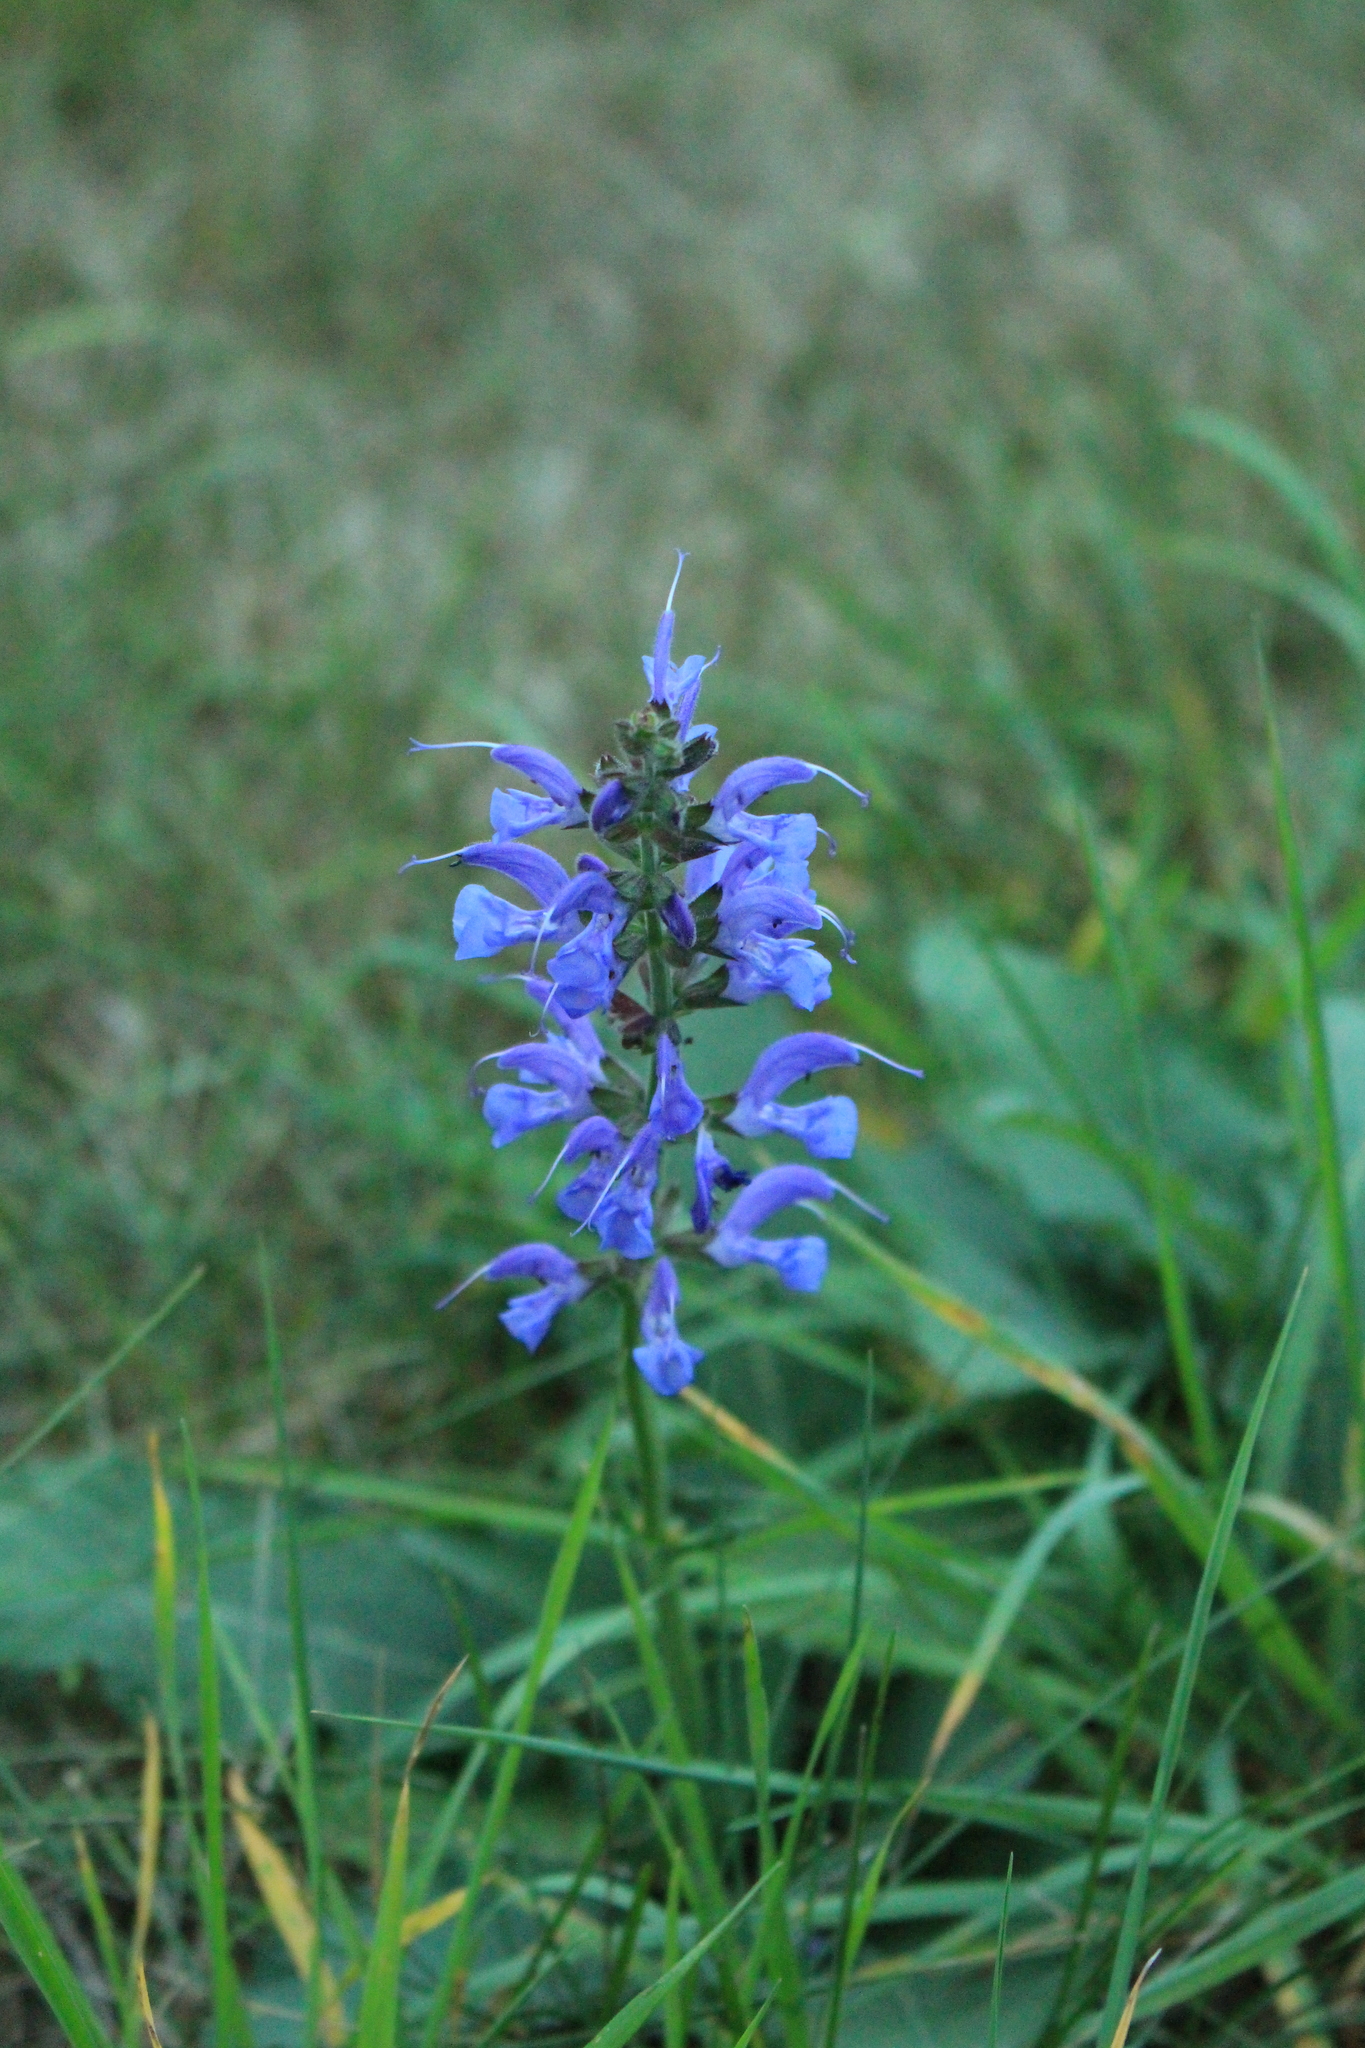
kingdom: Plantae
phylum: Tracheophyta
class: Magnoliopsida
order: Lamiales
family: Lamiaceae
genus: Salvia
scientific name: Salvia pratensis
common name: Meadow sage
